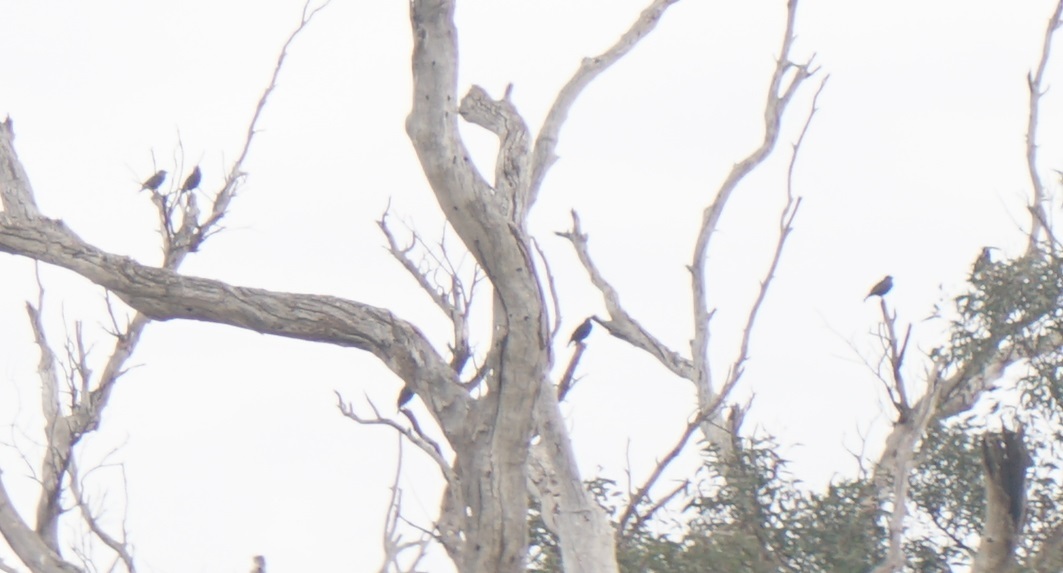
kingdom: Animalia
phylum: Chordata
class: Aves
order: Passeriformes
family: Sturnidae
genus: Sturnus
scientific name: Sturnus vulgaris
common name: Common starling
